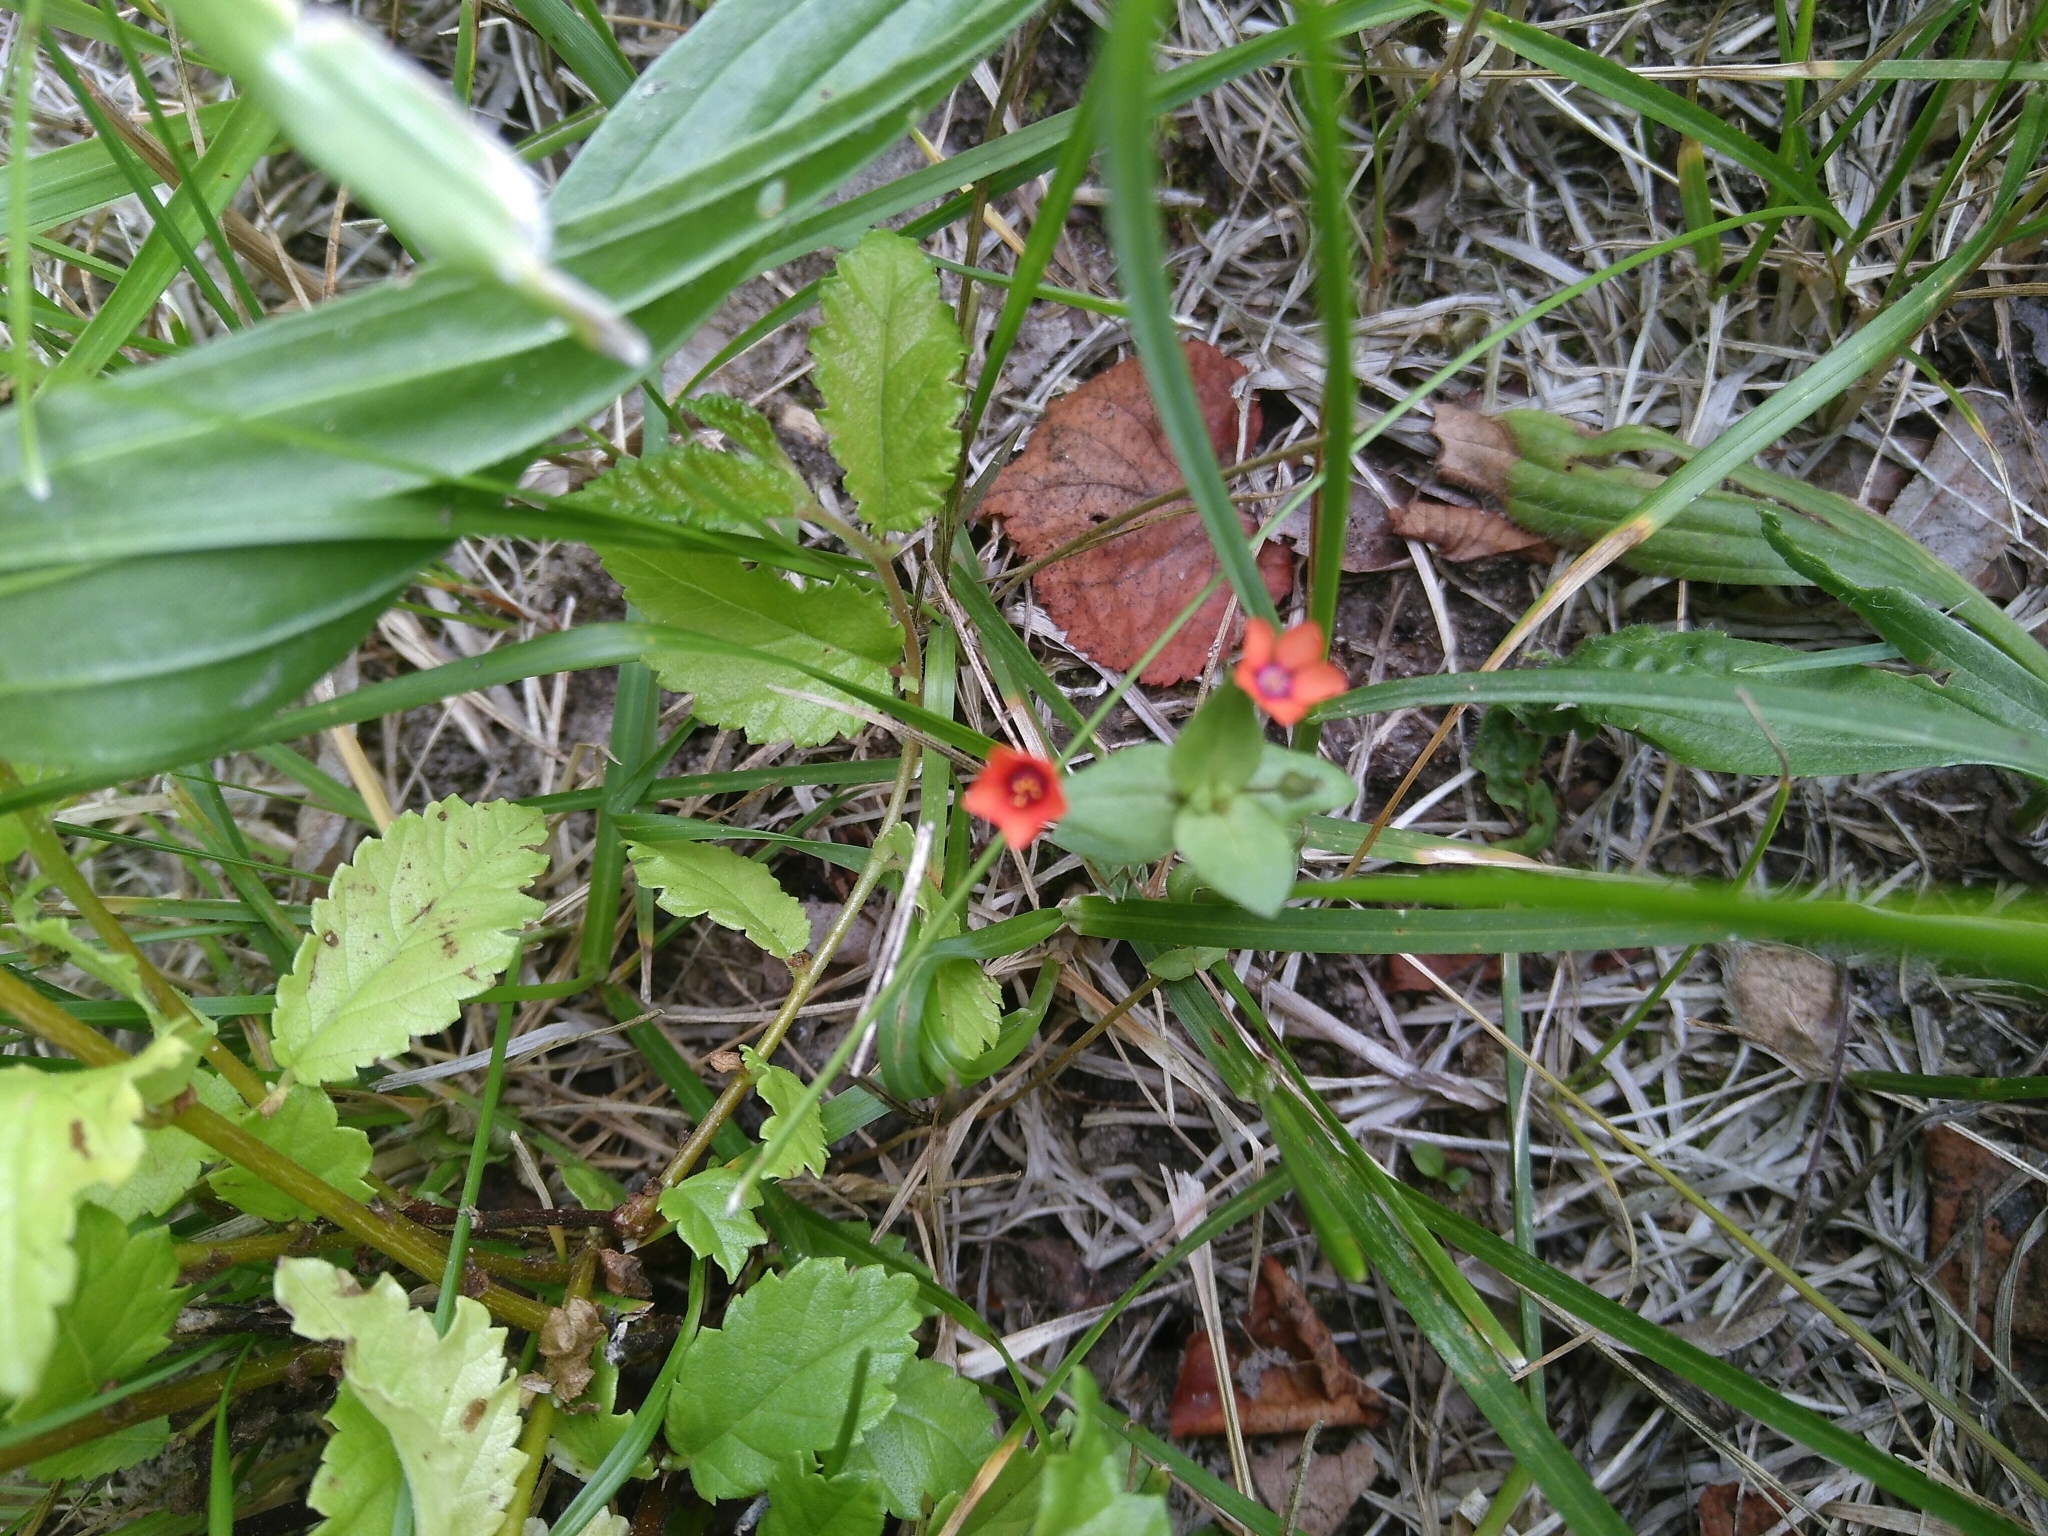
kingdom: Plantae
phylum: Tracheophyta
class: Magnoliopsida
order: Ericales
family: Primulaceae
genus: Lysimachia
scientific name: Lysimachia arvensis
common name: Scarlet pimpernel
